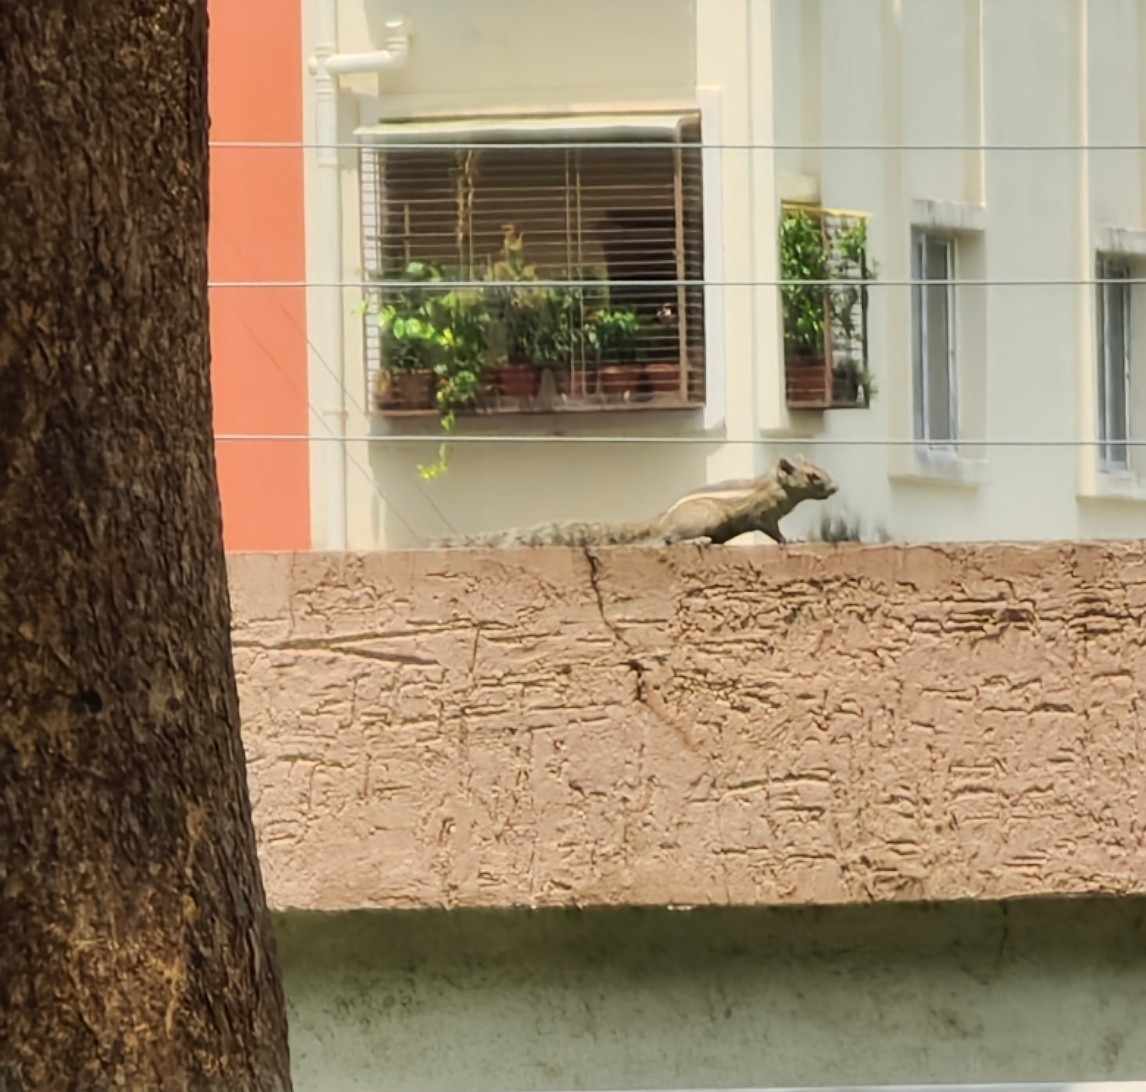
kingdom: Animalia
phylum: Chordata
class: Mammalia
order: Rodentia
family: Sciuridae
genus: Funambulus
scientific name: Funambulus pennantii
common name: Northern palm squirrel
